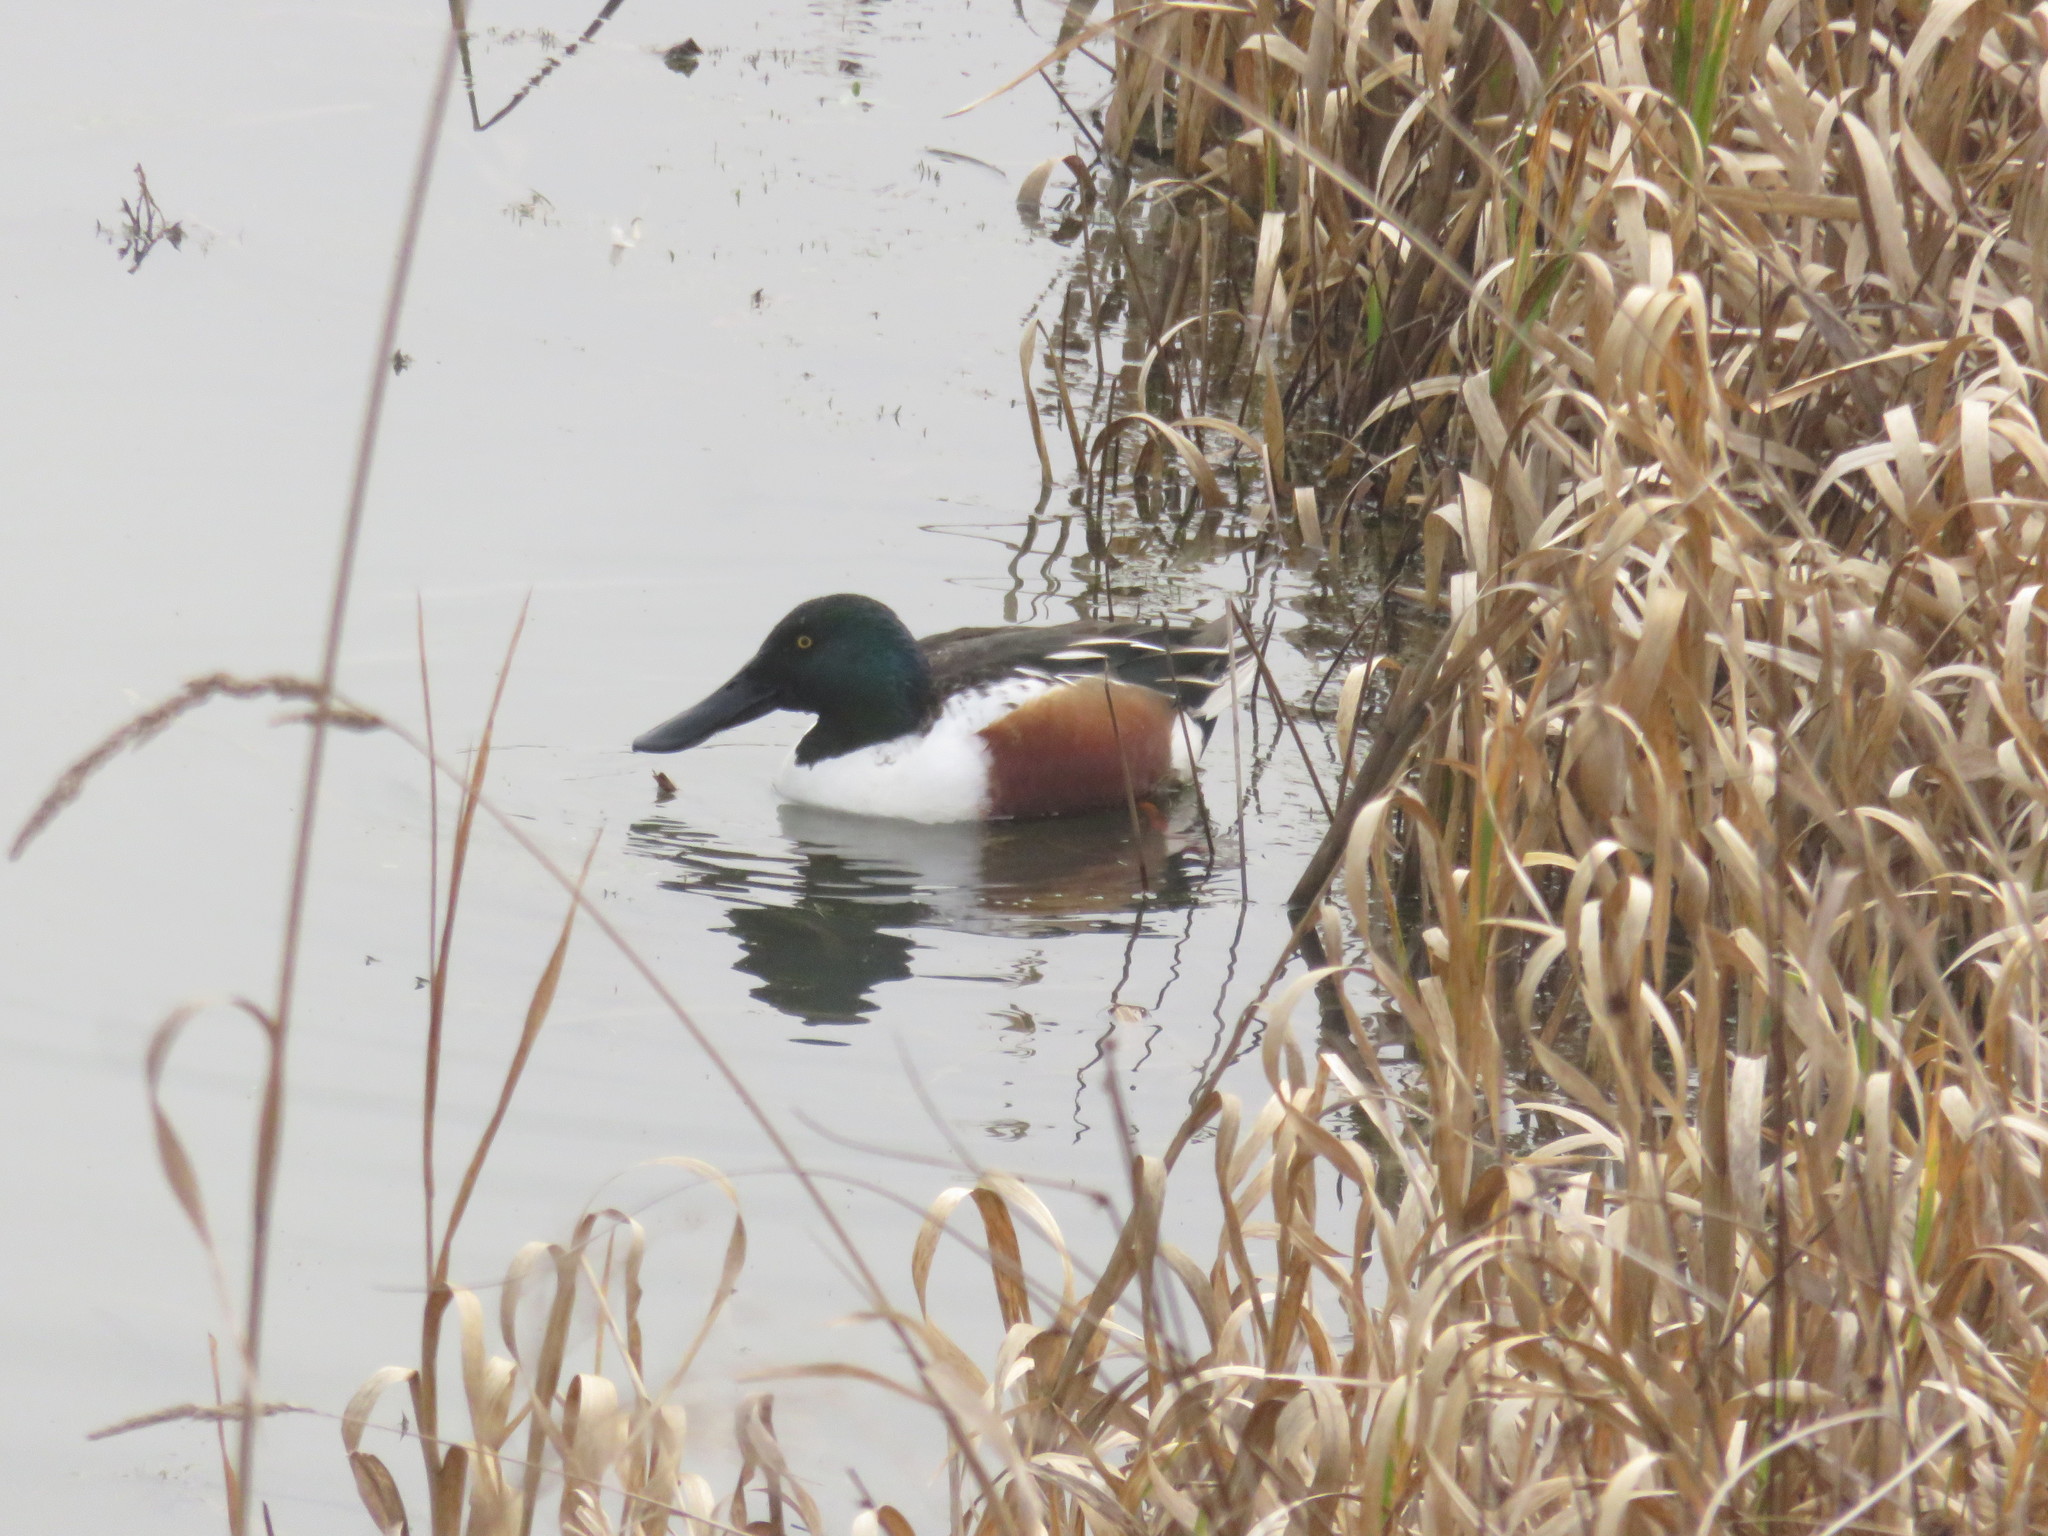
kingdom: Animalia
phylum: Chordata
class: Aves
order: Anseriformes
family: Anatidae
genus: Spatula
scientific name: Spatula clypeata
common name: Northern shoveler
